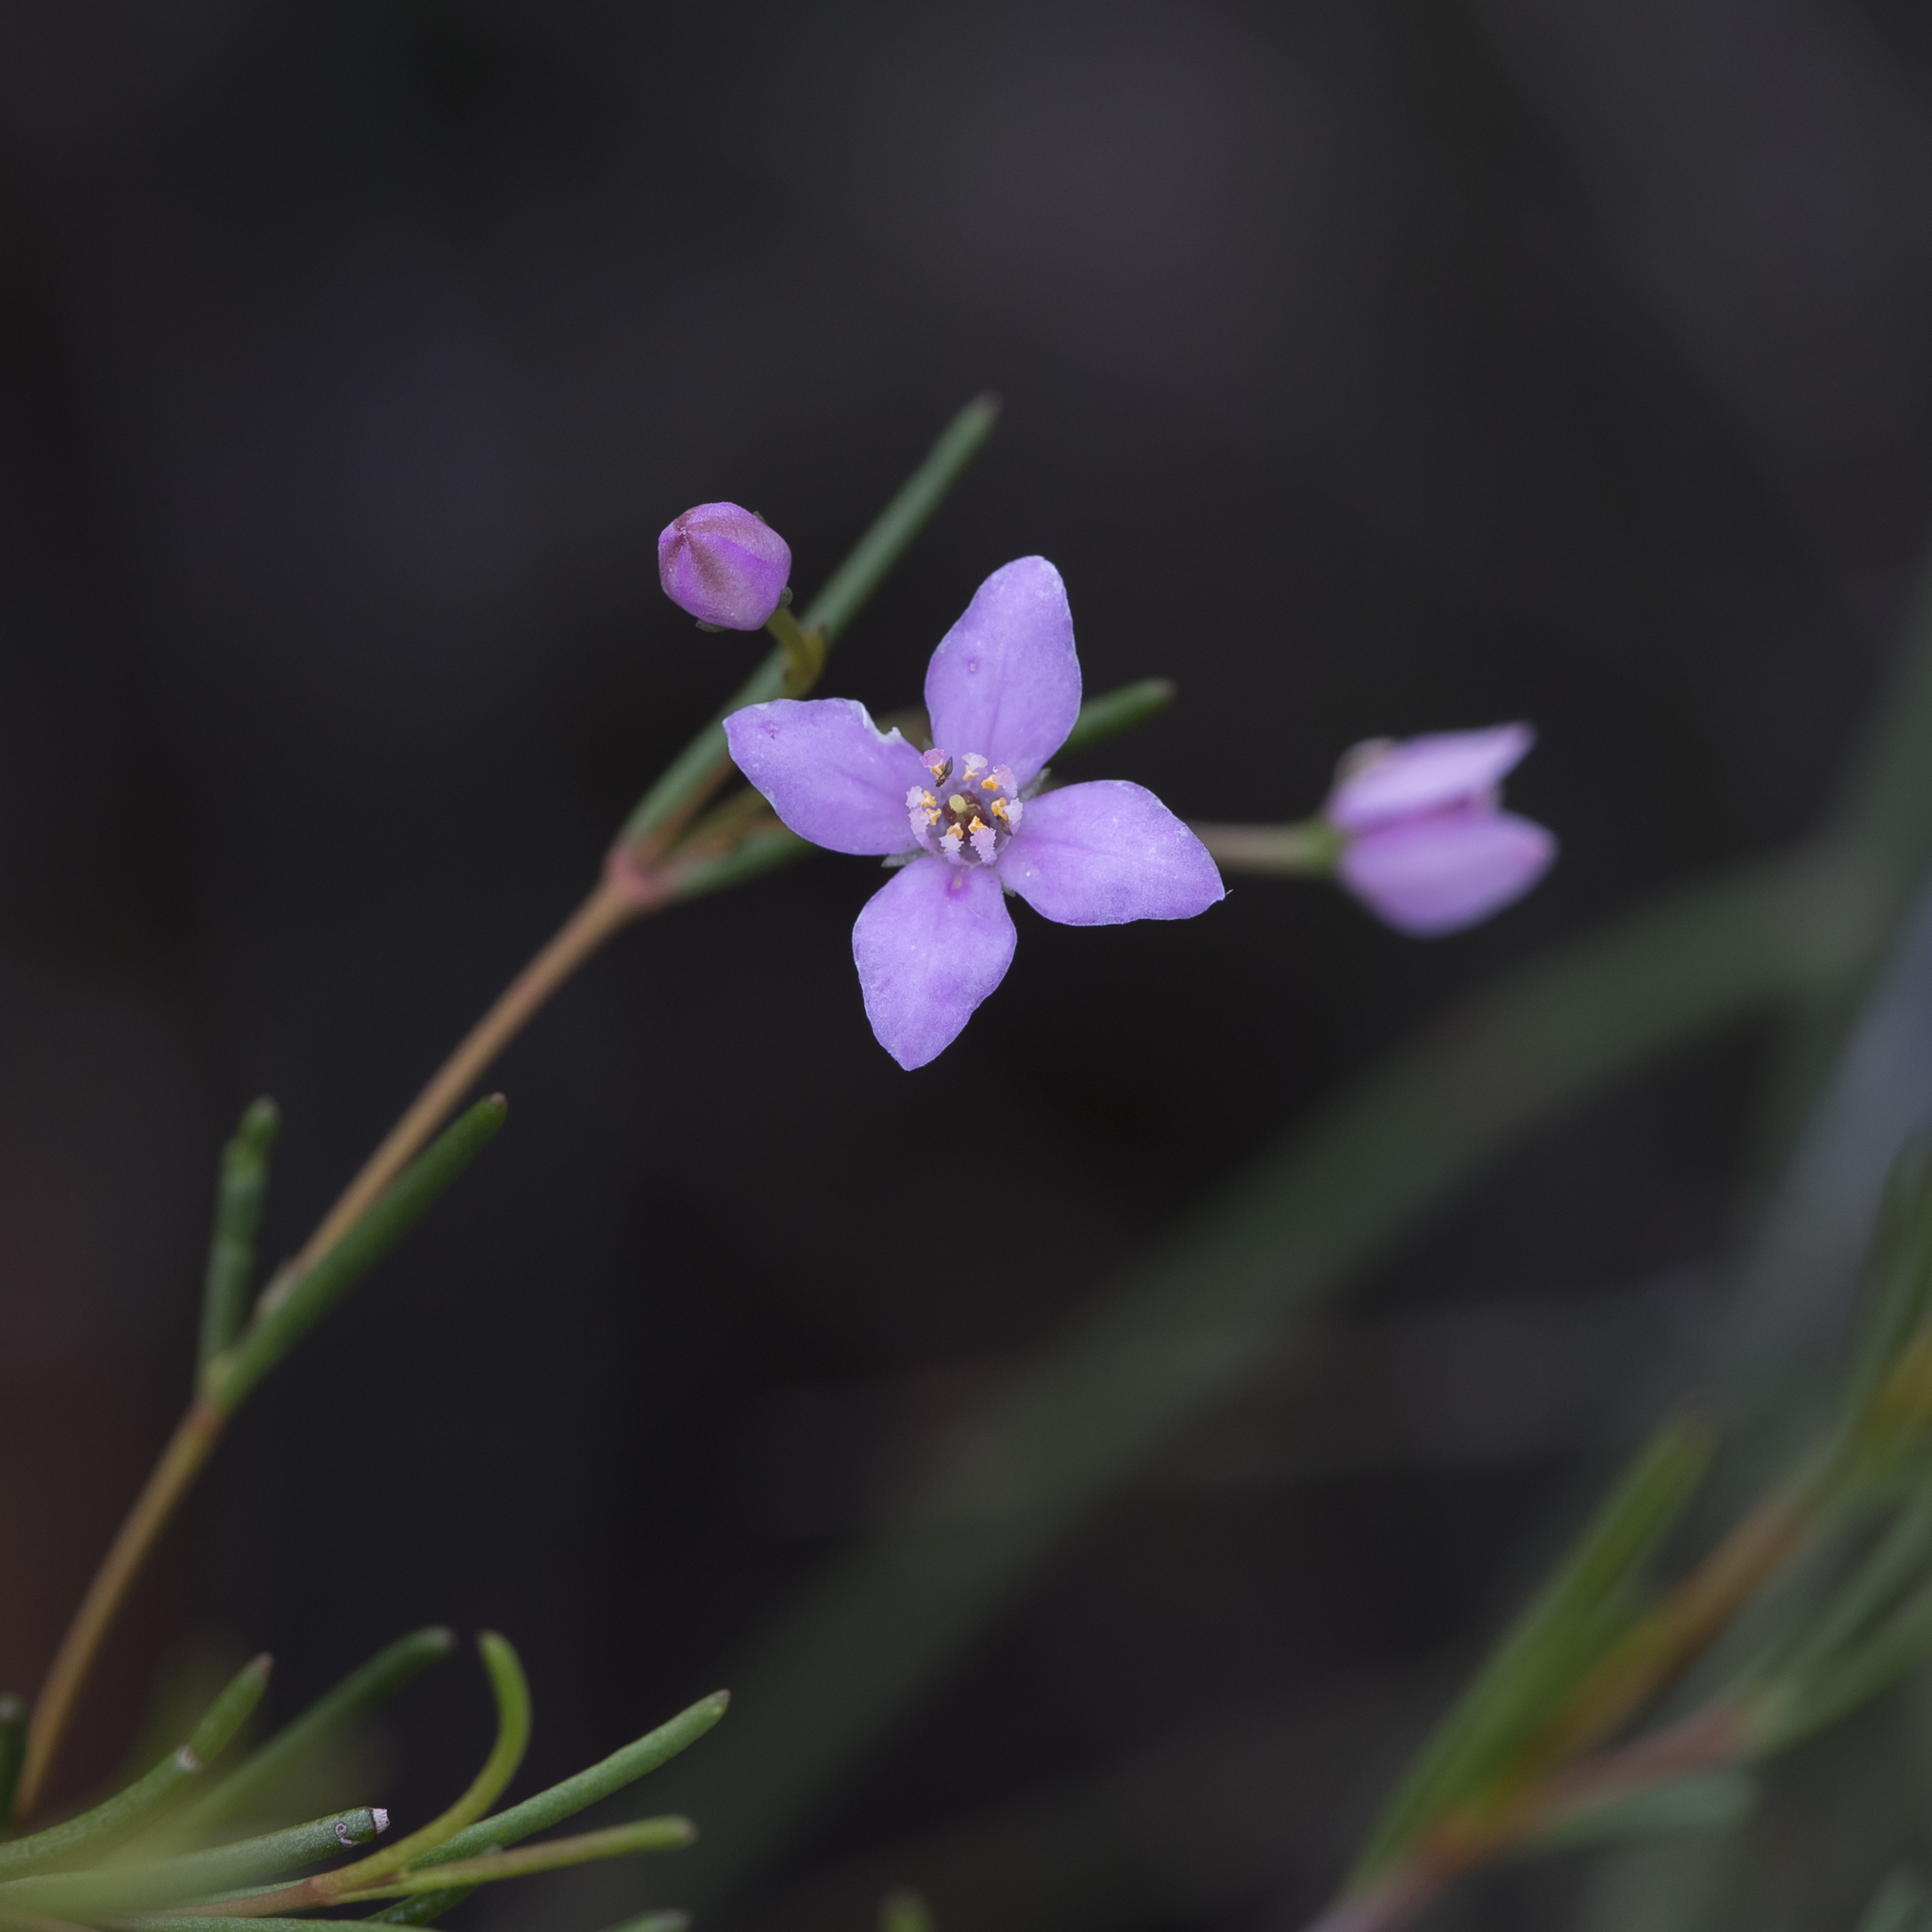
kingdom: Plantae
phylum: Tracheophyta
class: Magnoliopsida
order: Sapindales
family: Rutaceae
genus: Boronia
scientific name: Boronia filifolia
